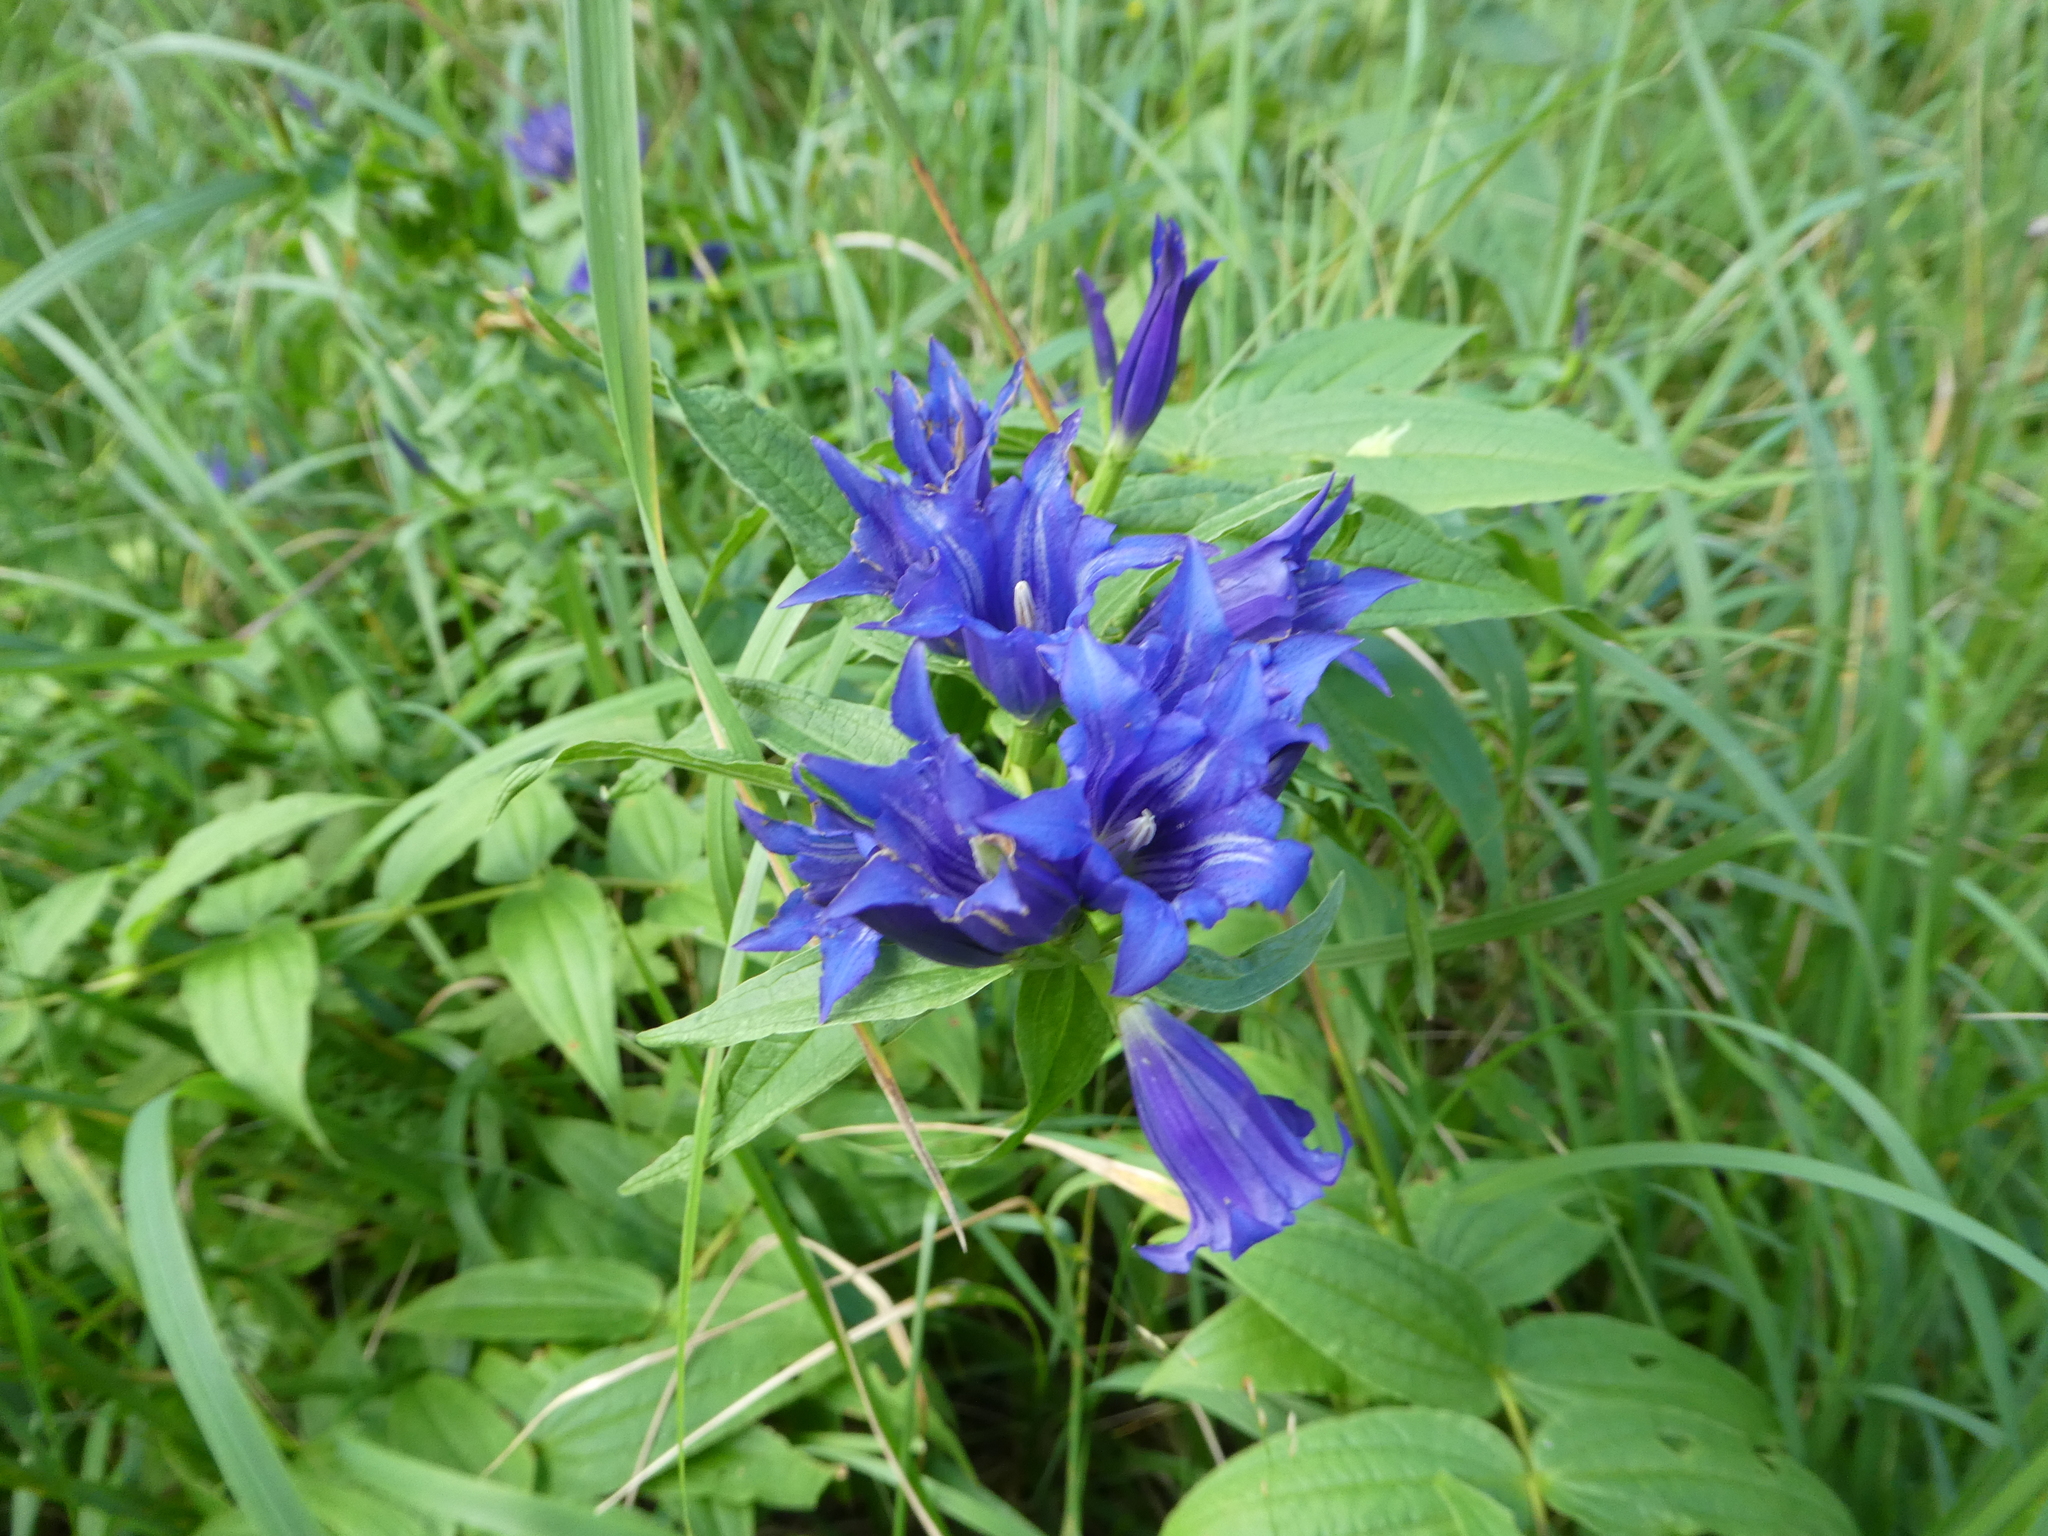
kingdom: Plantae
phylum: Tracheophyta
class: Magnoliopsida
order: Gentianales
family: Gentianaceae
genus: Gentiana
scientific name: Gentiana asclepiadea
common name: Willow gentian
